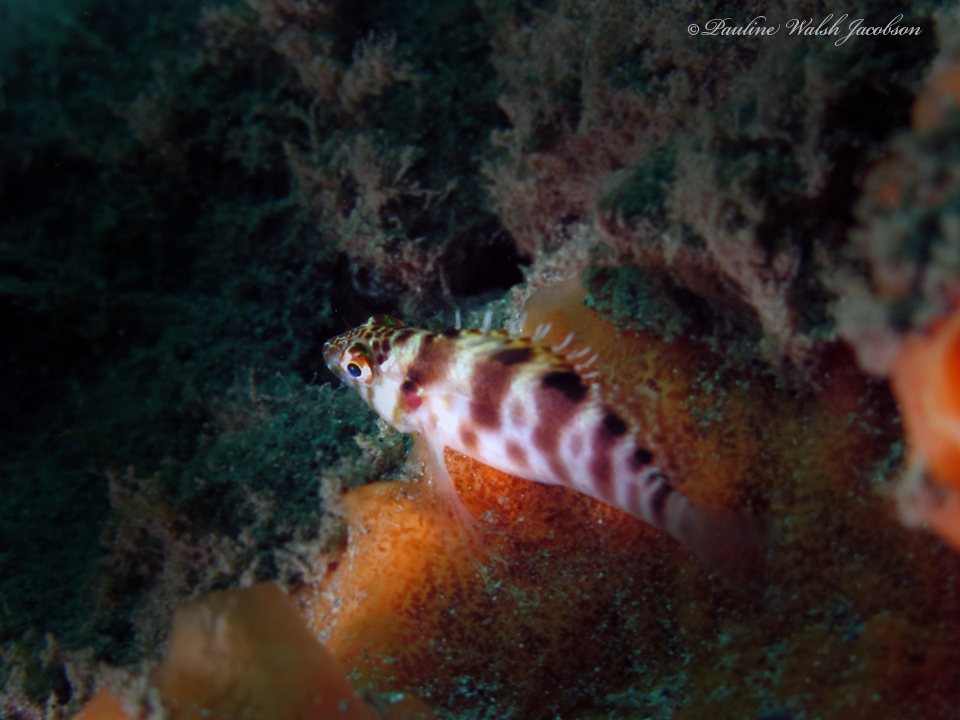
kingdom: Animalia
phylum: Chordata
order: Perciformes
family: Cirrhitidae
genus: Cirrhitichthys
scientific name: Cirrhitichthys aprinus
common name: Blotched hawkfish
